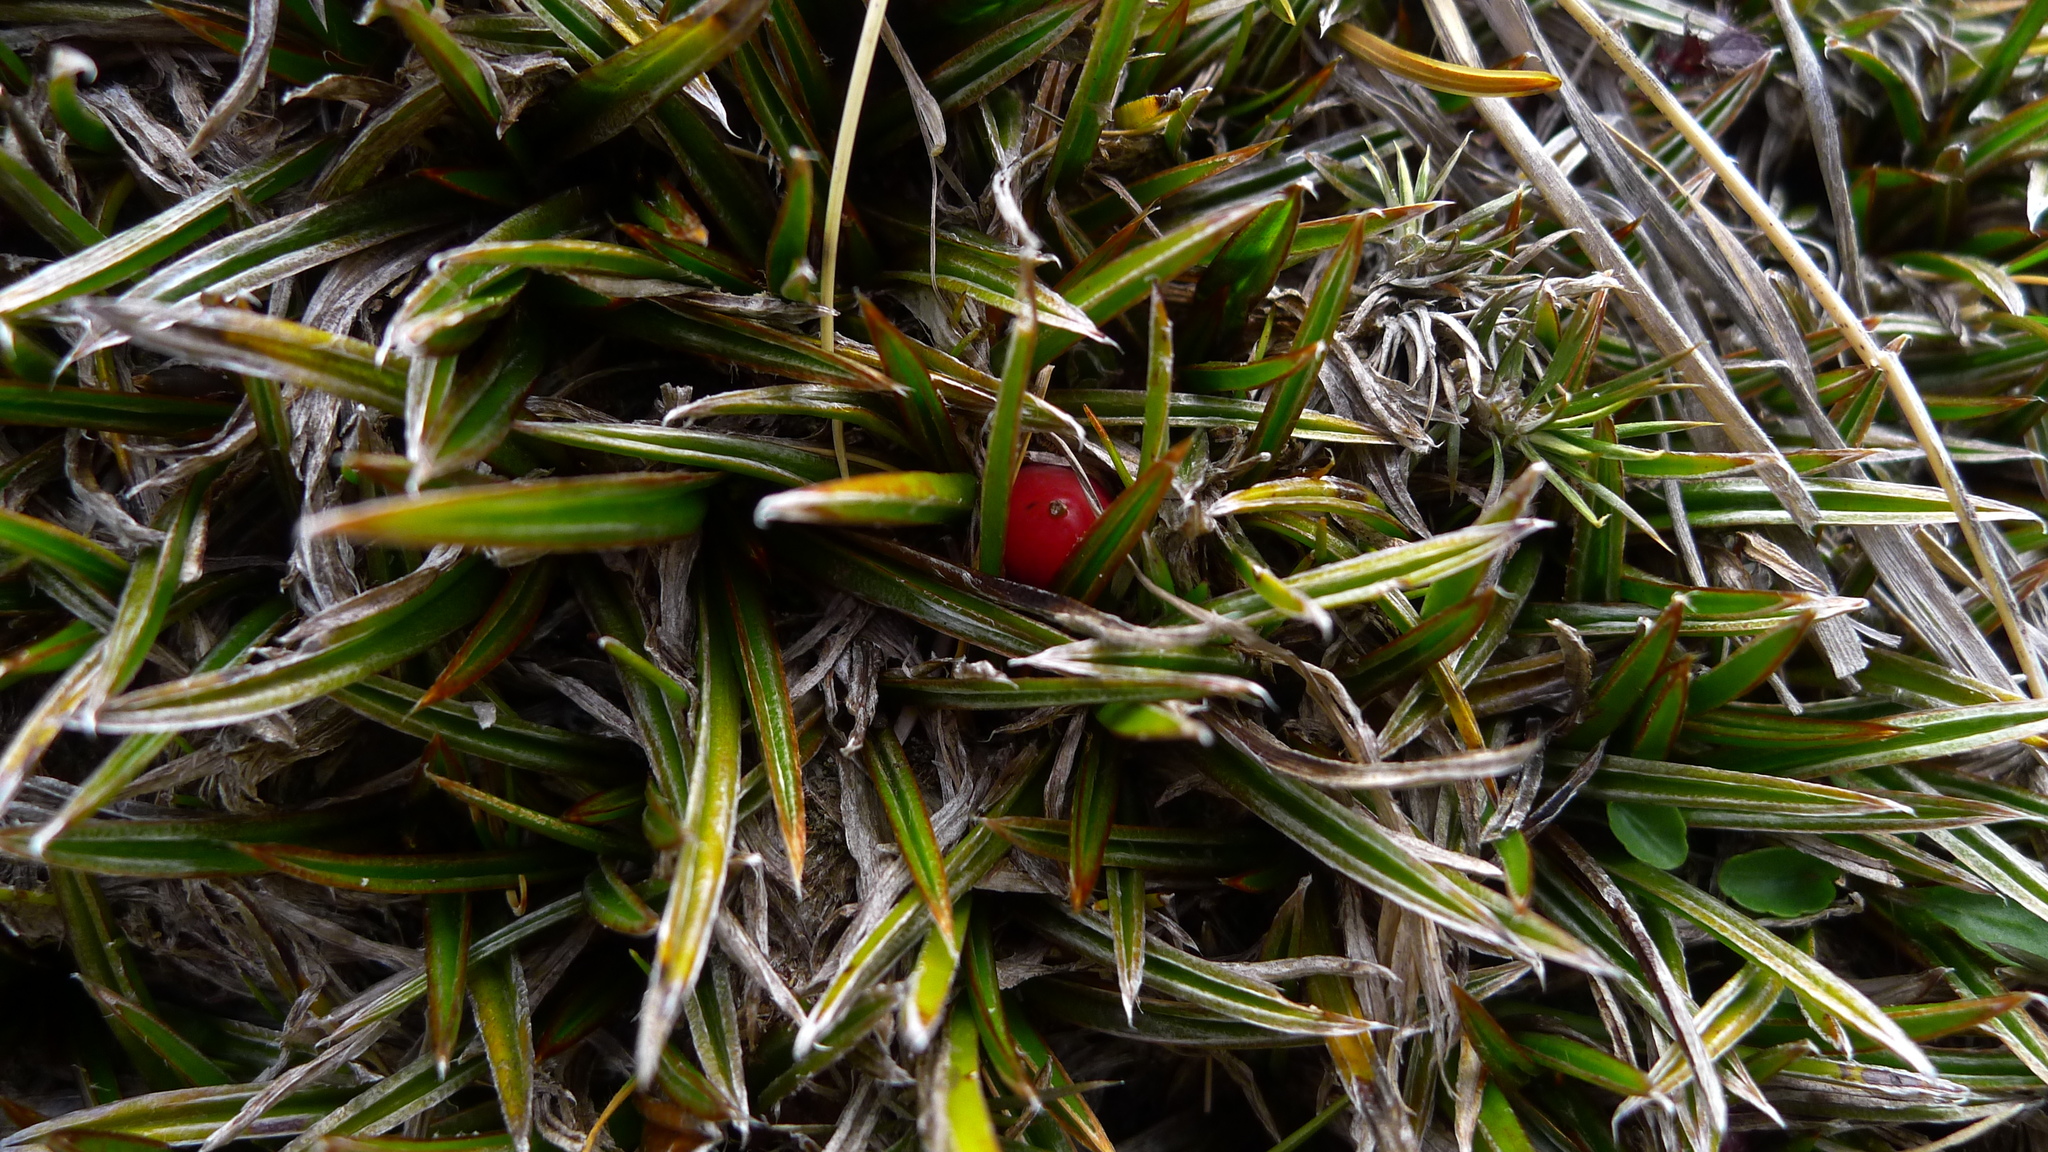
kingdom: Plantae
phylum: Tracheophyta
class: Liliopsida
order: Asparagales
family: Asteliaceae
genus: Astelia
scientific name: Astelia linearis
